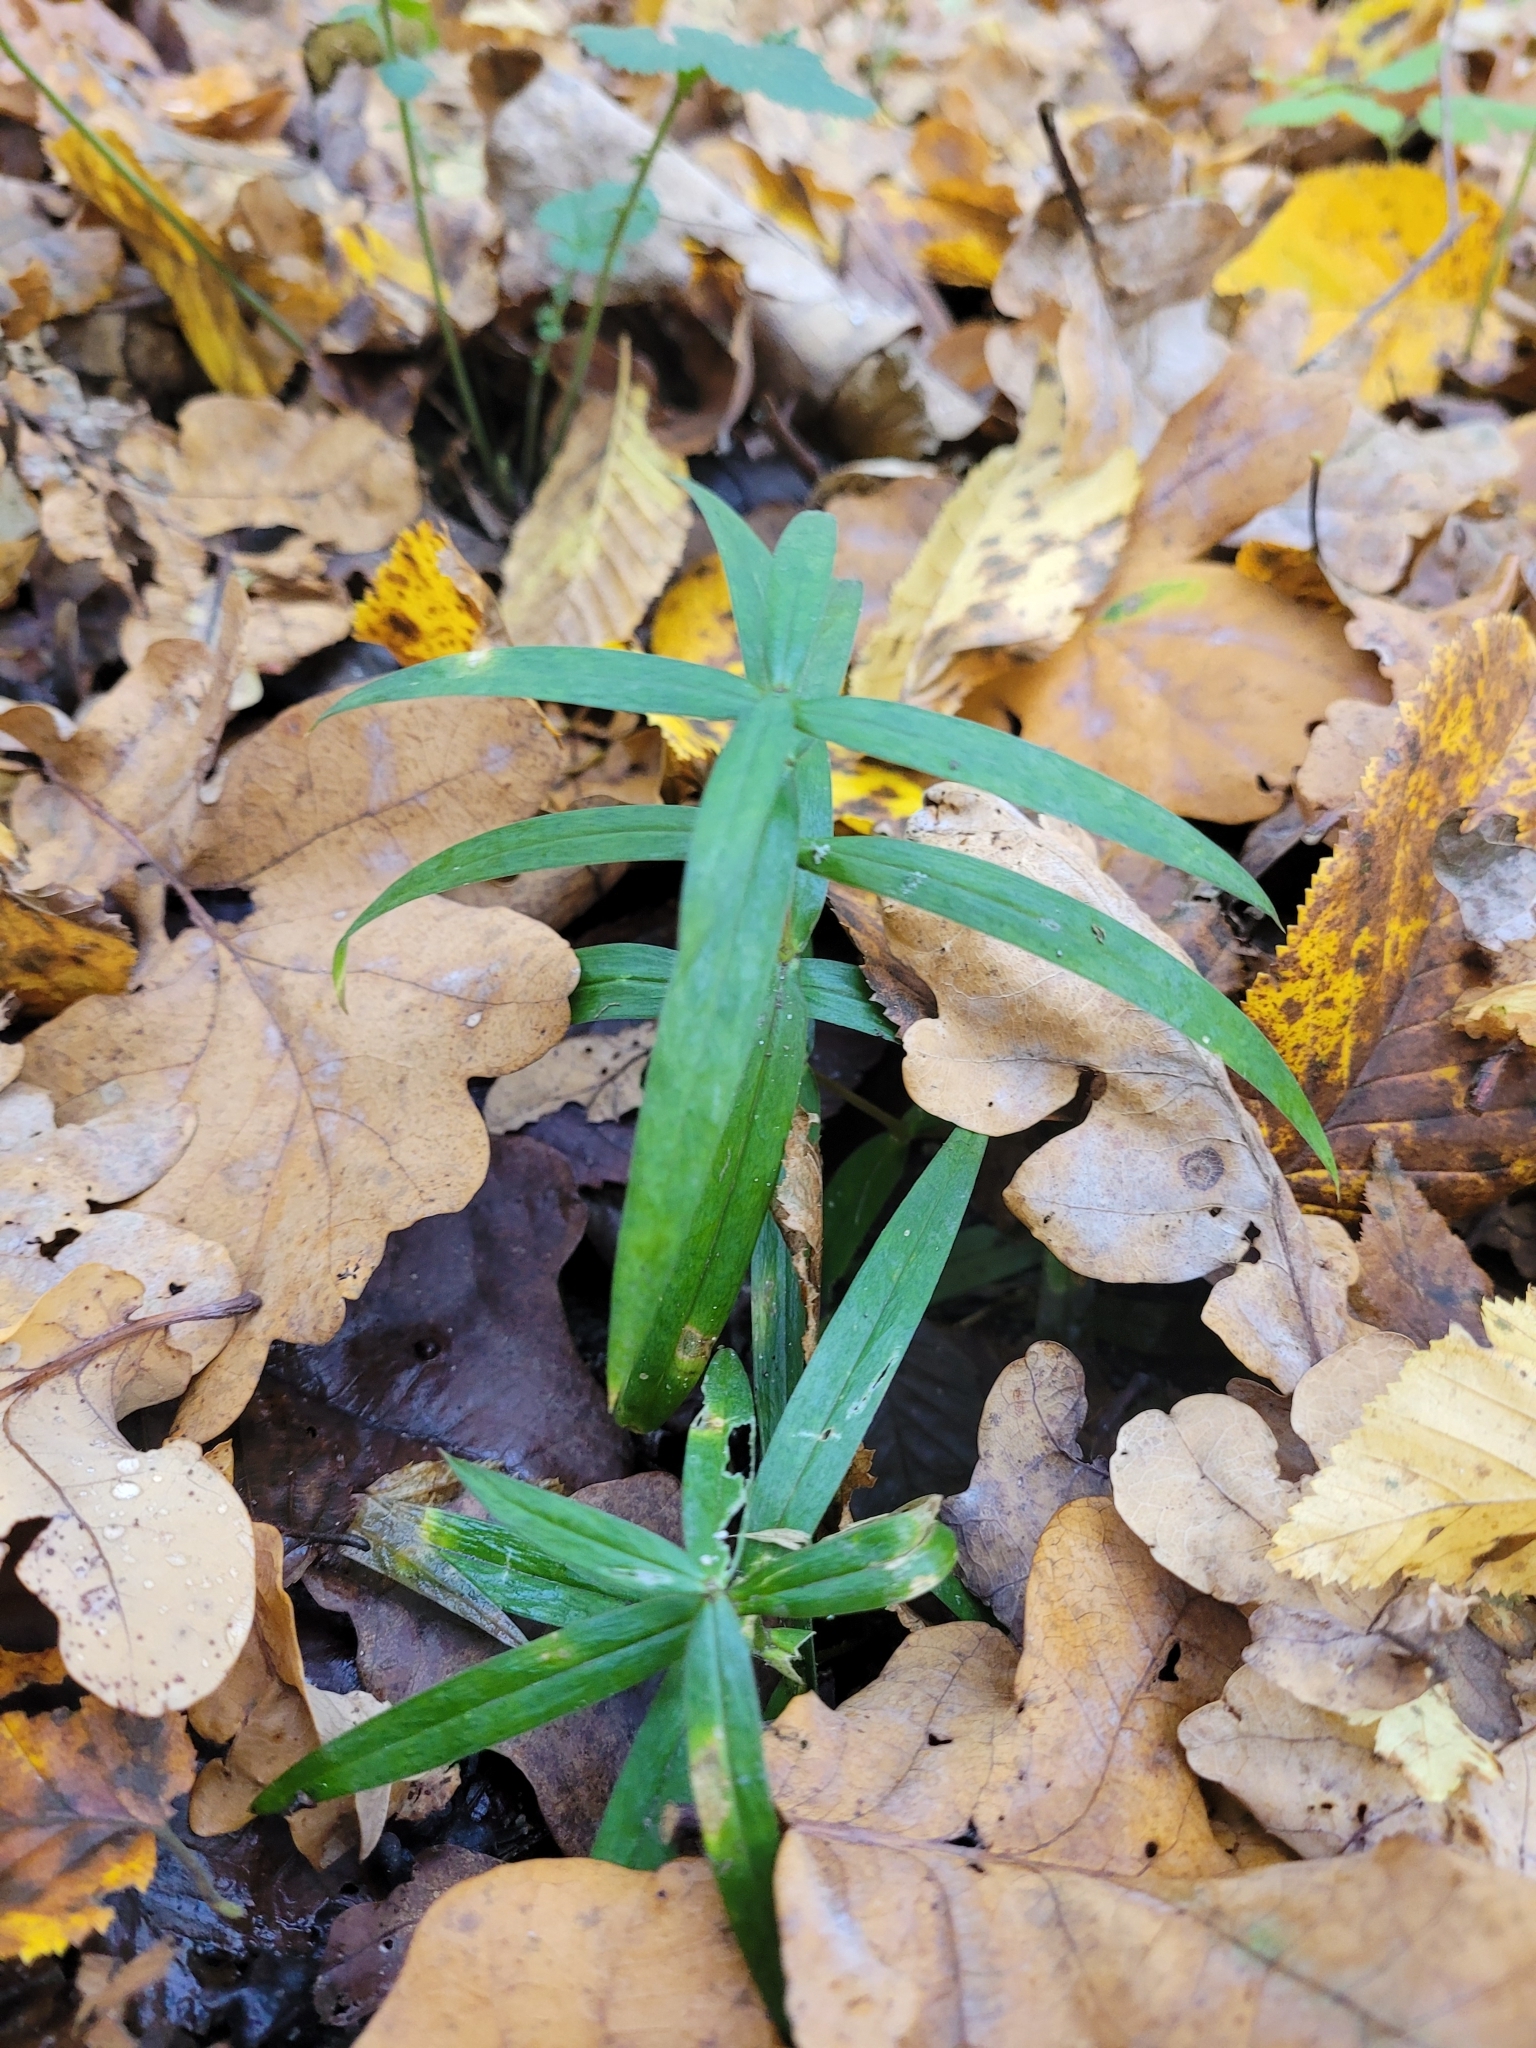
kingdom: Plantae
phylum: Tracheophyta
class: Magnoliopsida
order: Caryophyllales
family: Caryophyllaceae
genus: Rabelera
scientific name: Rabelera holostea
